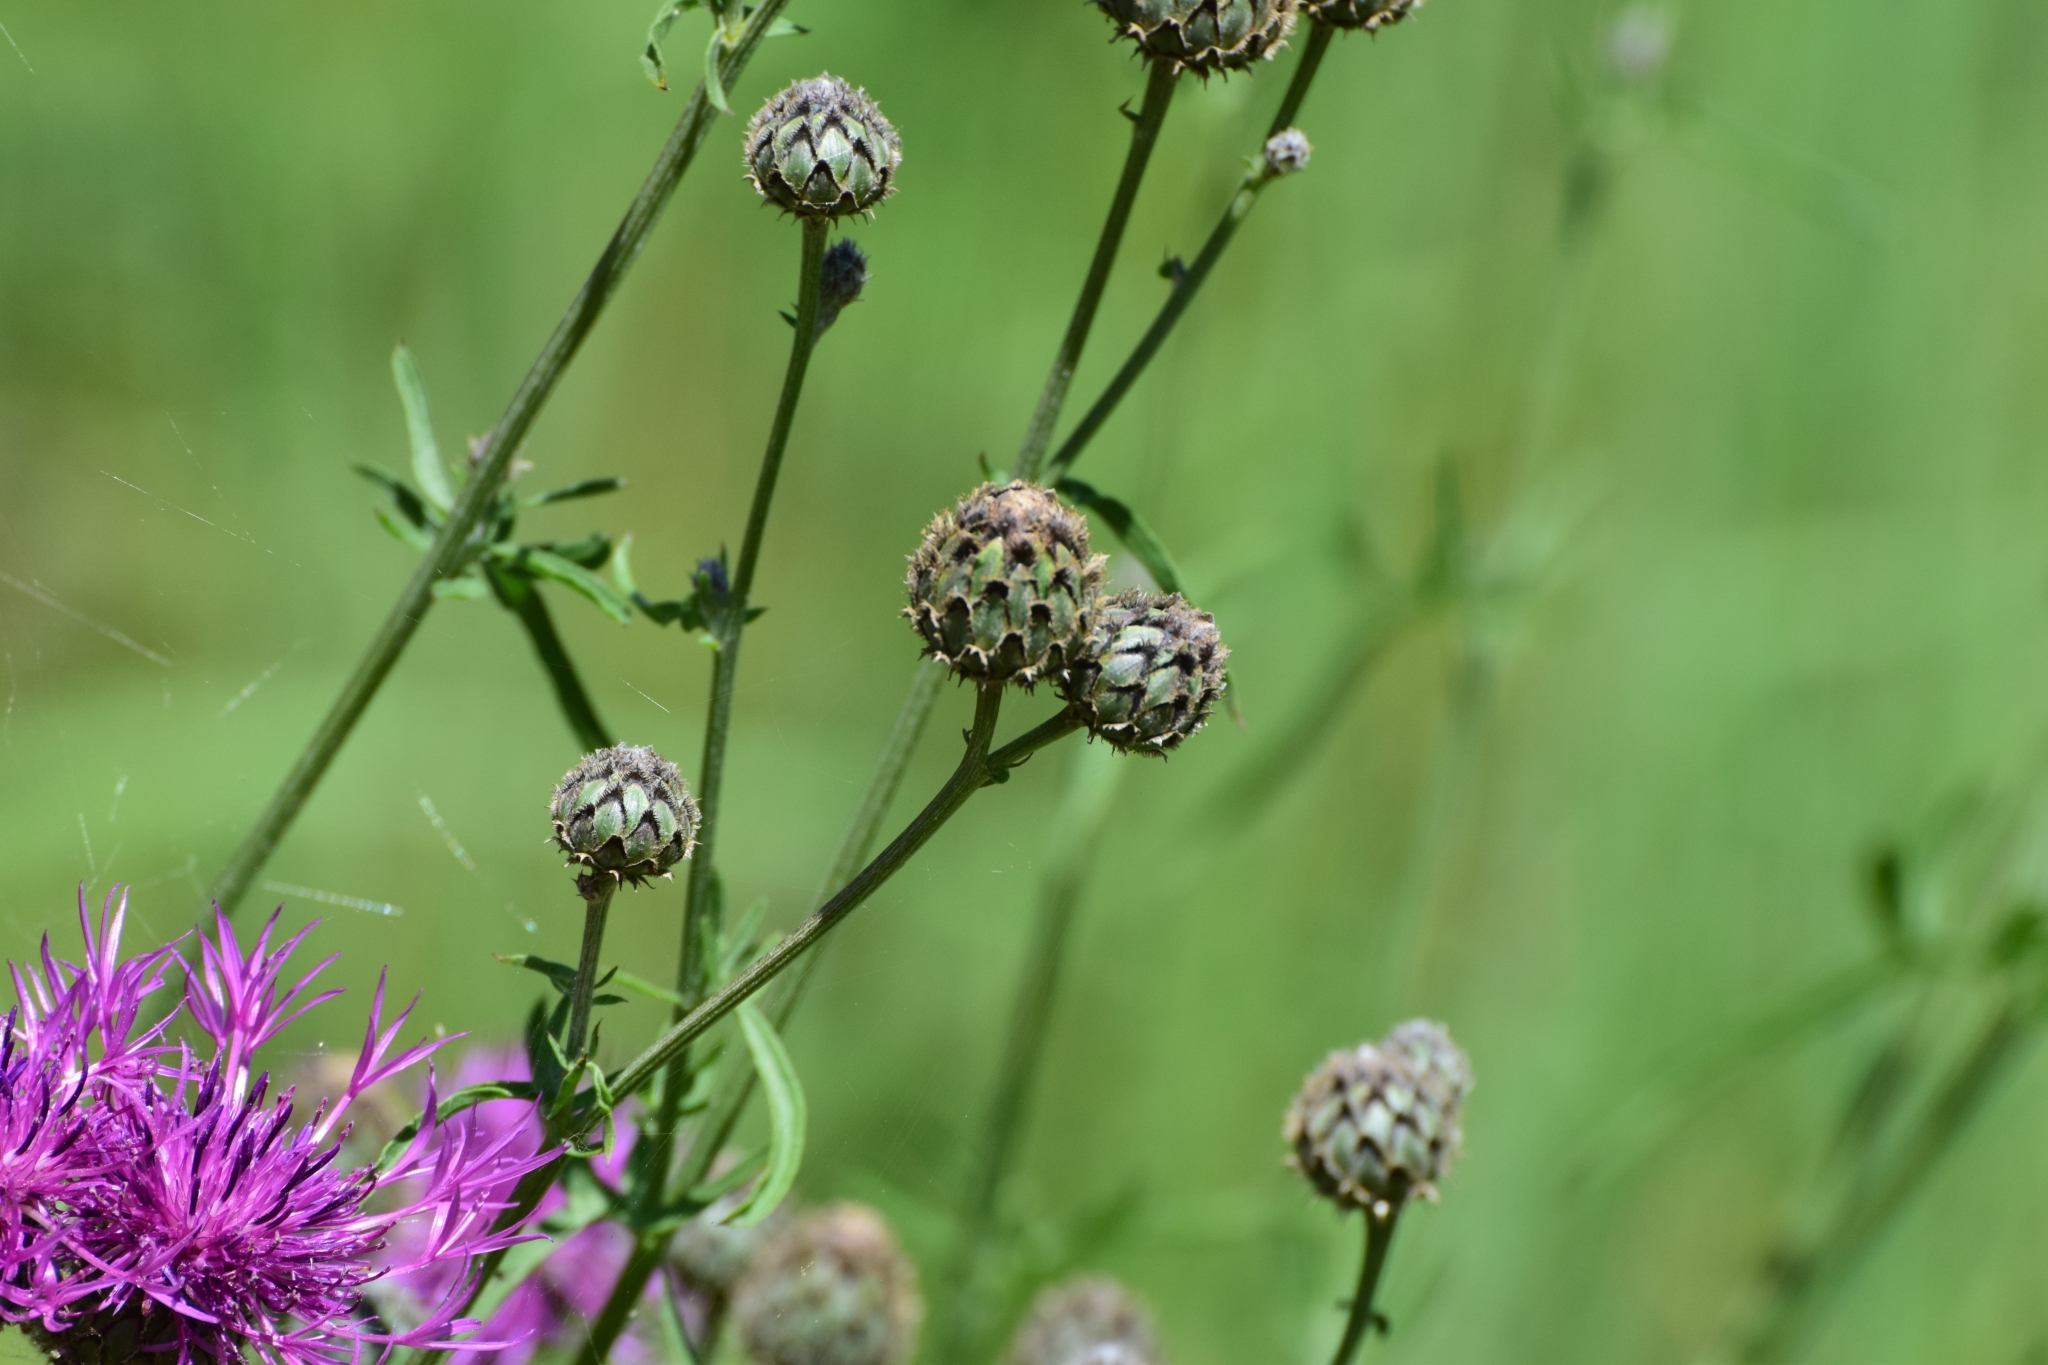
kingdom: Plantae
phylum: Tracheophyta
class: Magnoliopsida
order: Asterales
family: Asteraceae
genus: Centaurea
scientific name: Centaurea scabiosa
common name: Greater knapweed
